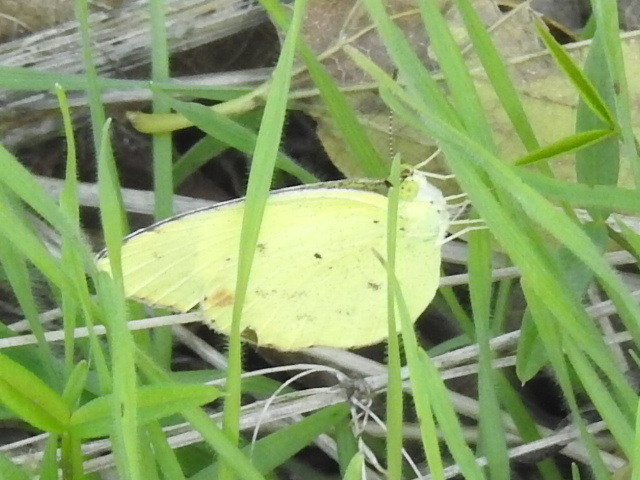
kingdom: Animalia
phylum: Arthropoda
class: Insecta
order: Lepidoptera
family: Pieridae
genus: Pyrisitia
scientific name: Pyrisitia lisa
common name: Little yellow
